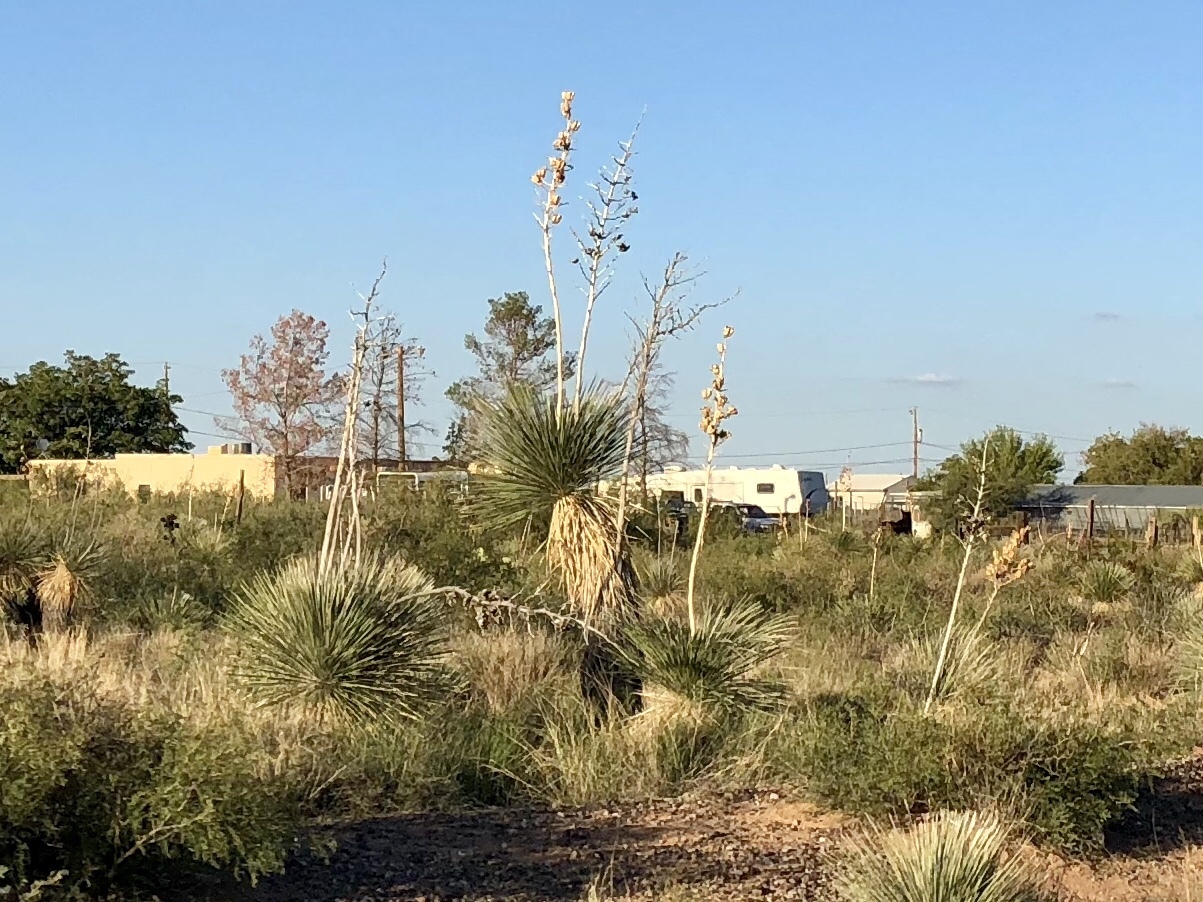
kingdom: Plantae
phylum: Tracheophyta
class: Liliopsida
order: Asparagales
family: Asparagaceae
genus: Yucca
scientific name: Yucca elata
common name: Palmella
